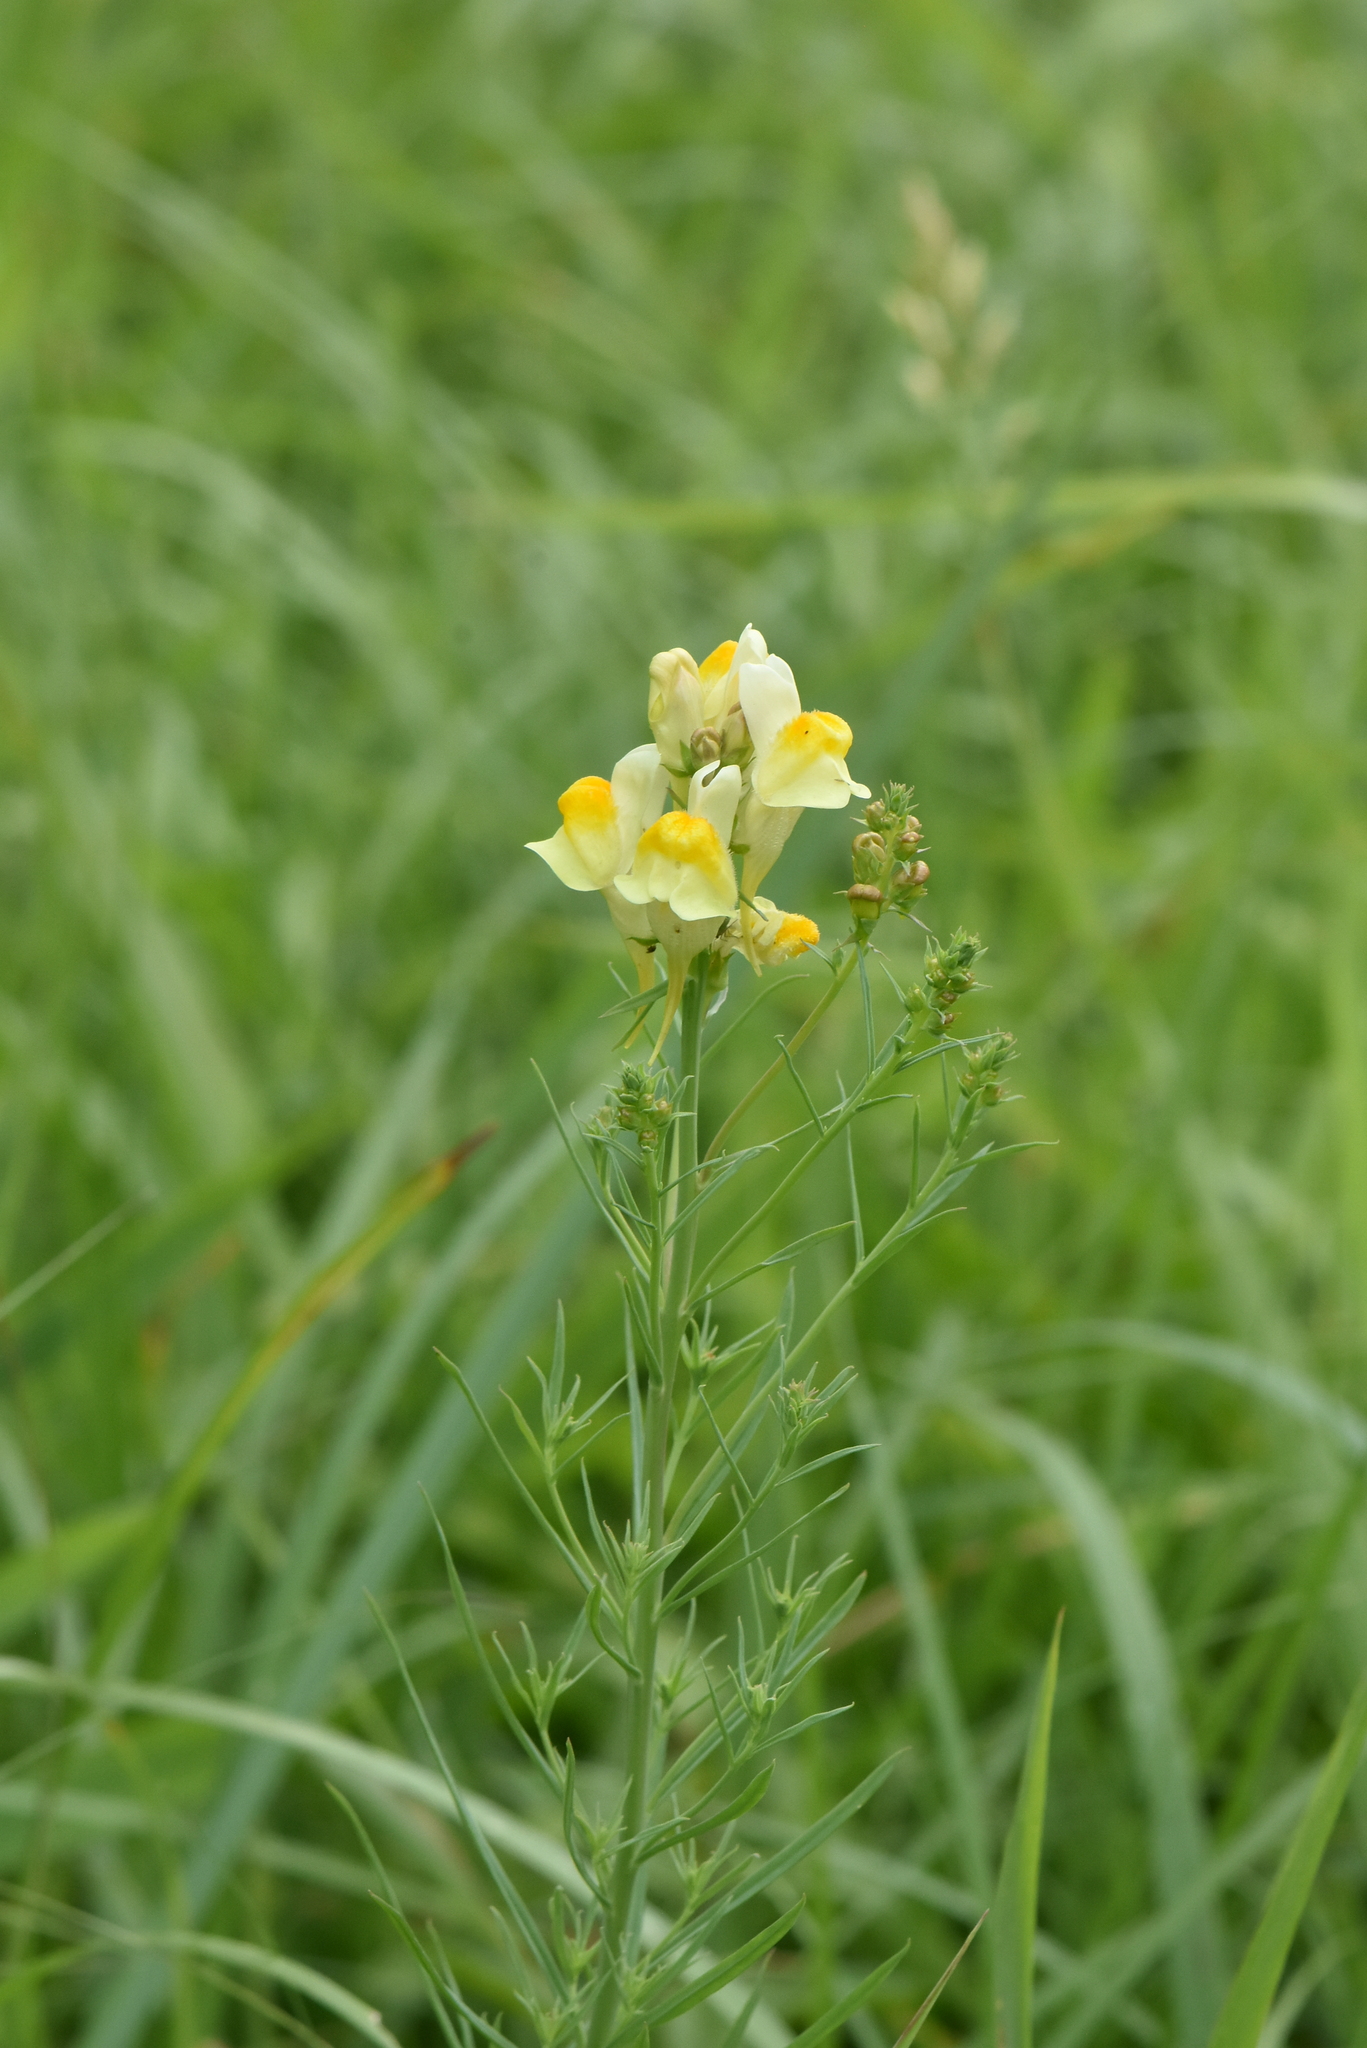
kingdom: Plantae
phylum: Tracheophyta
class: Magnoliopsida
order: Lamiales
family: Plantaginaceae
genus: Linaria
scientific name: Linaria vulgaris
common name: Butter and eggs
